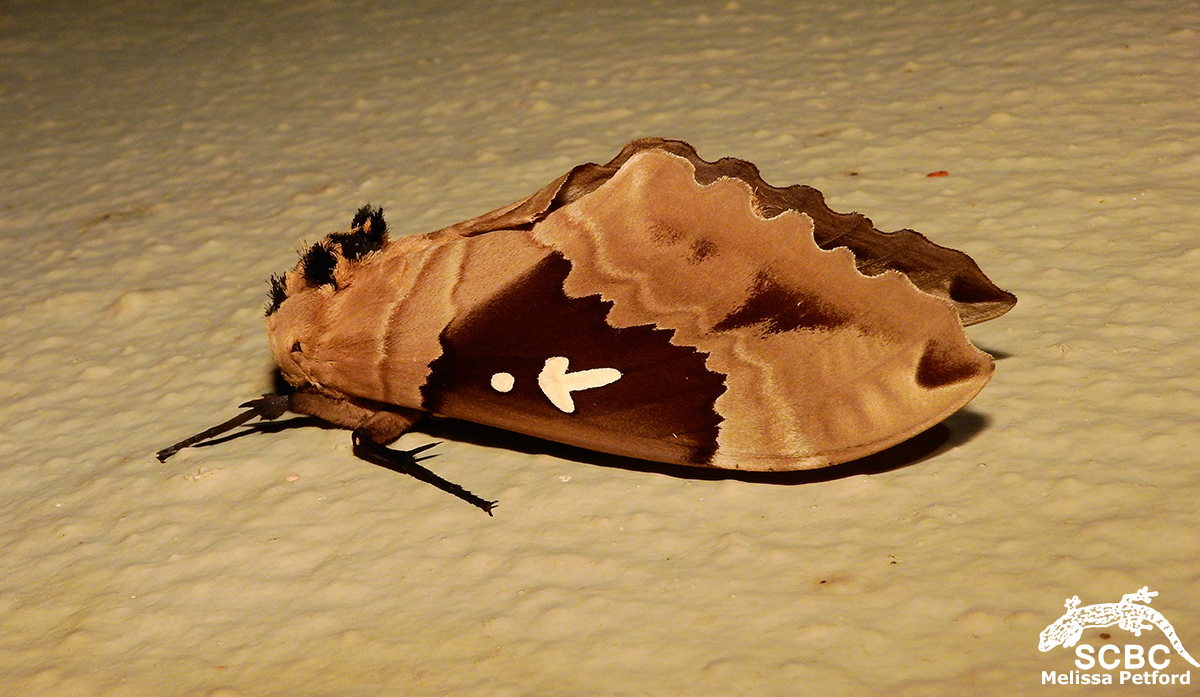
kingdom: Animalia
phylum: Arthropoda
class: Insecta
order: Lepidoptera
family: Sphingidae
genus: Lophostethus
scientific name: Lophostethus dumolinii
